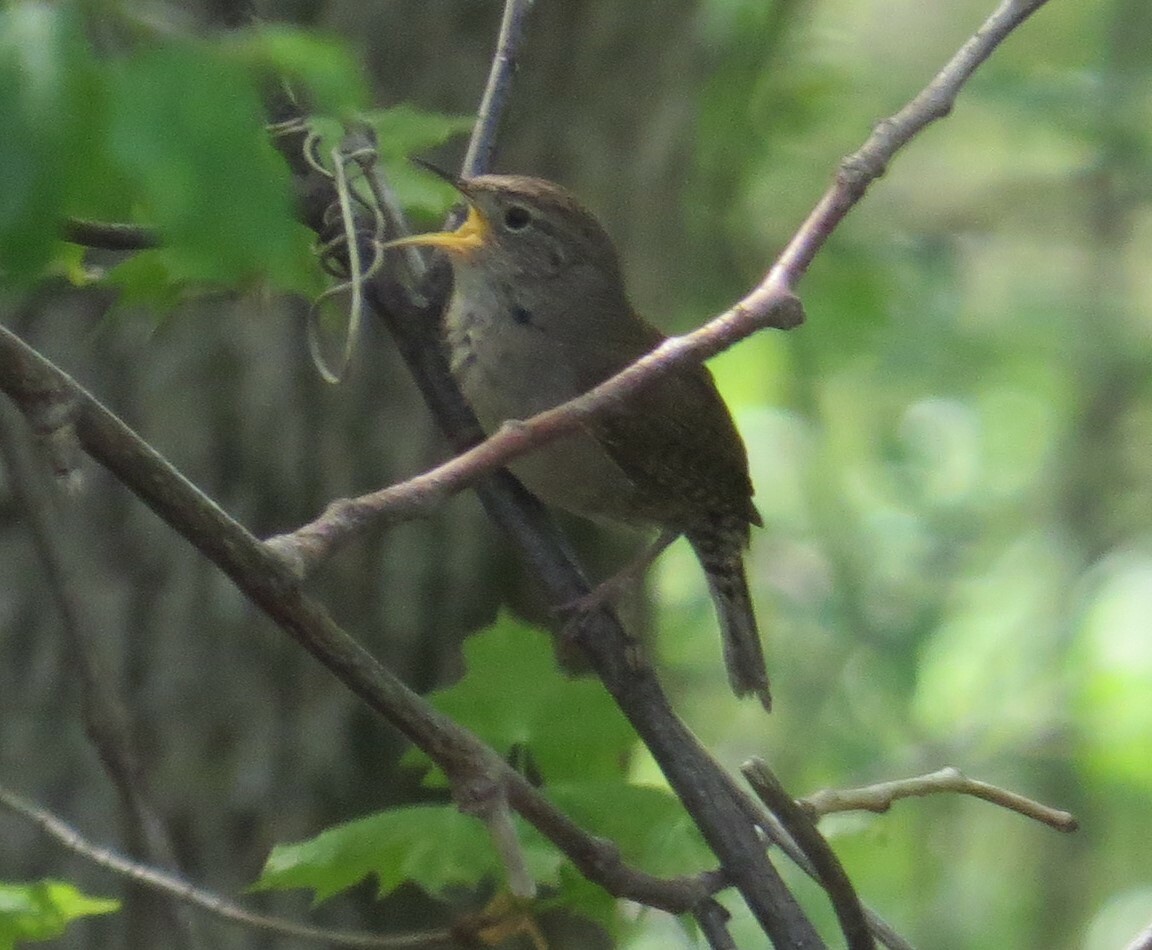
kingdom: Animalia
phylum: Chordata
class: Aves
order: Passeriformes
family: Troglodytidae
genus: Troglodytes
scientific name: Troglodytes aedon
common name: House wren
